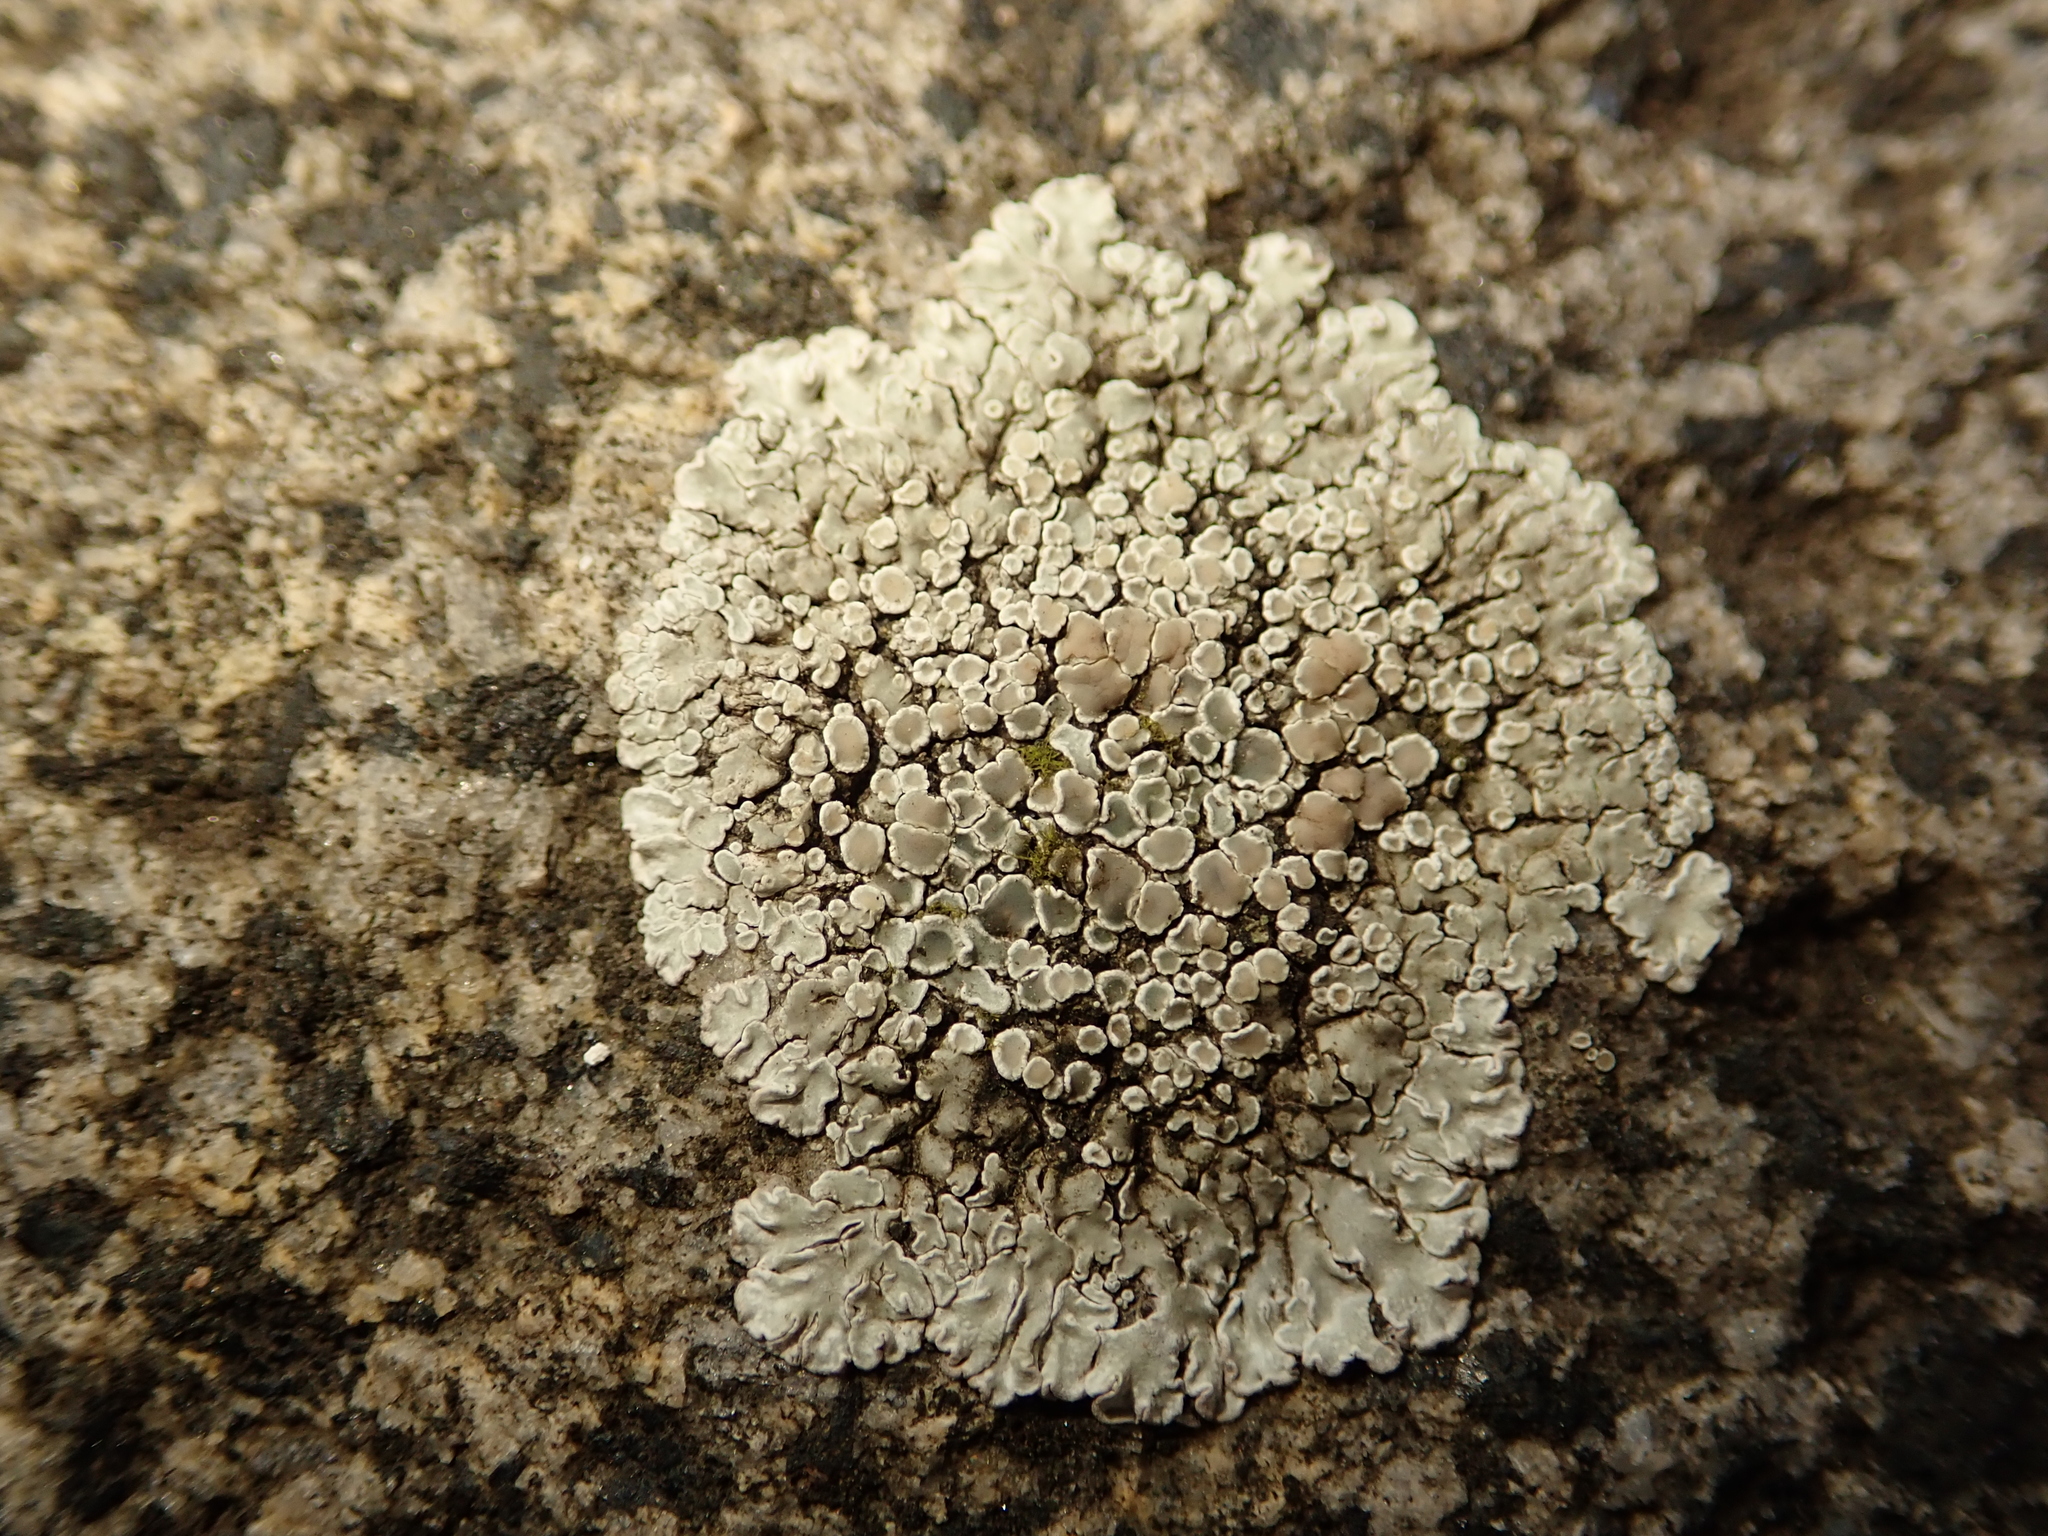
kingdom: Fungi
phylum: Ascomycota
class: Lecanoromycetes
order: Lecanorales
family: Lecanoraceae
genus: Protoparmeliopsis
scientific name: Protoparmeliopsis muralis
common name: Stonewall rim lichen
